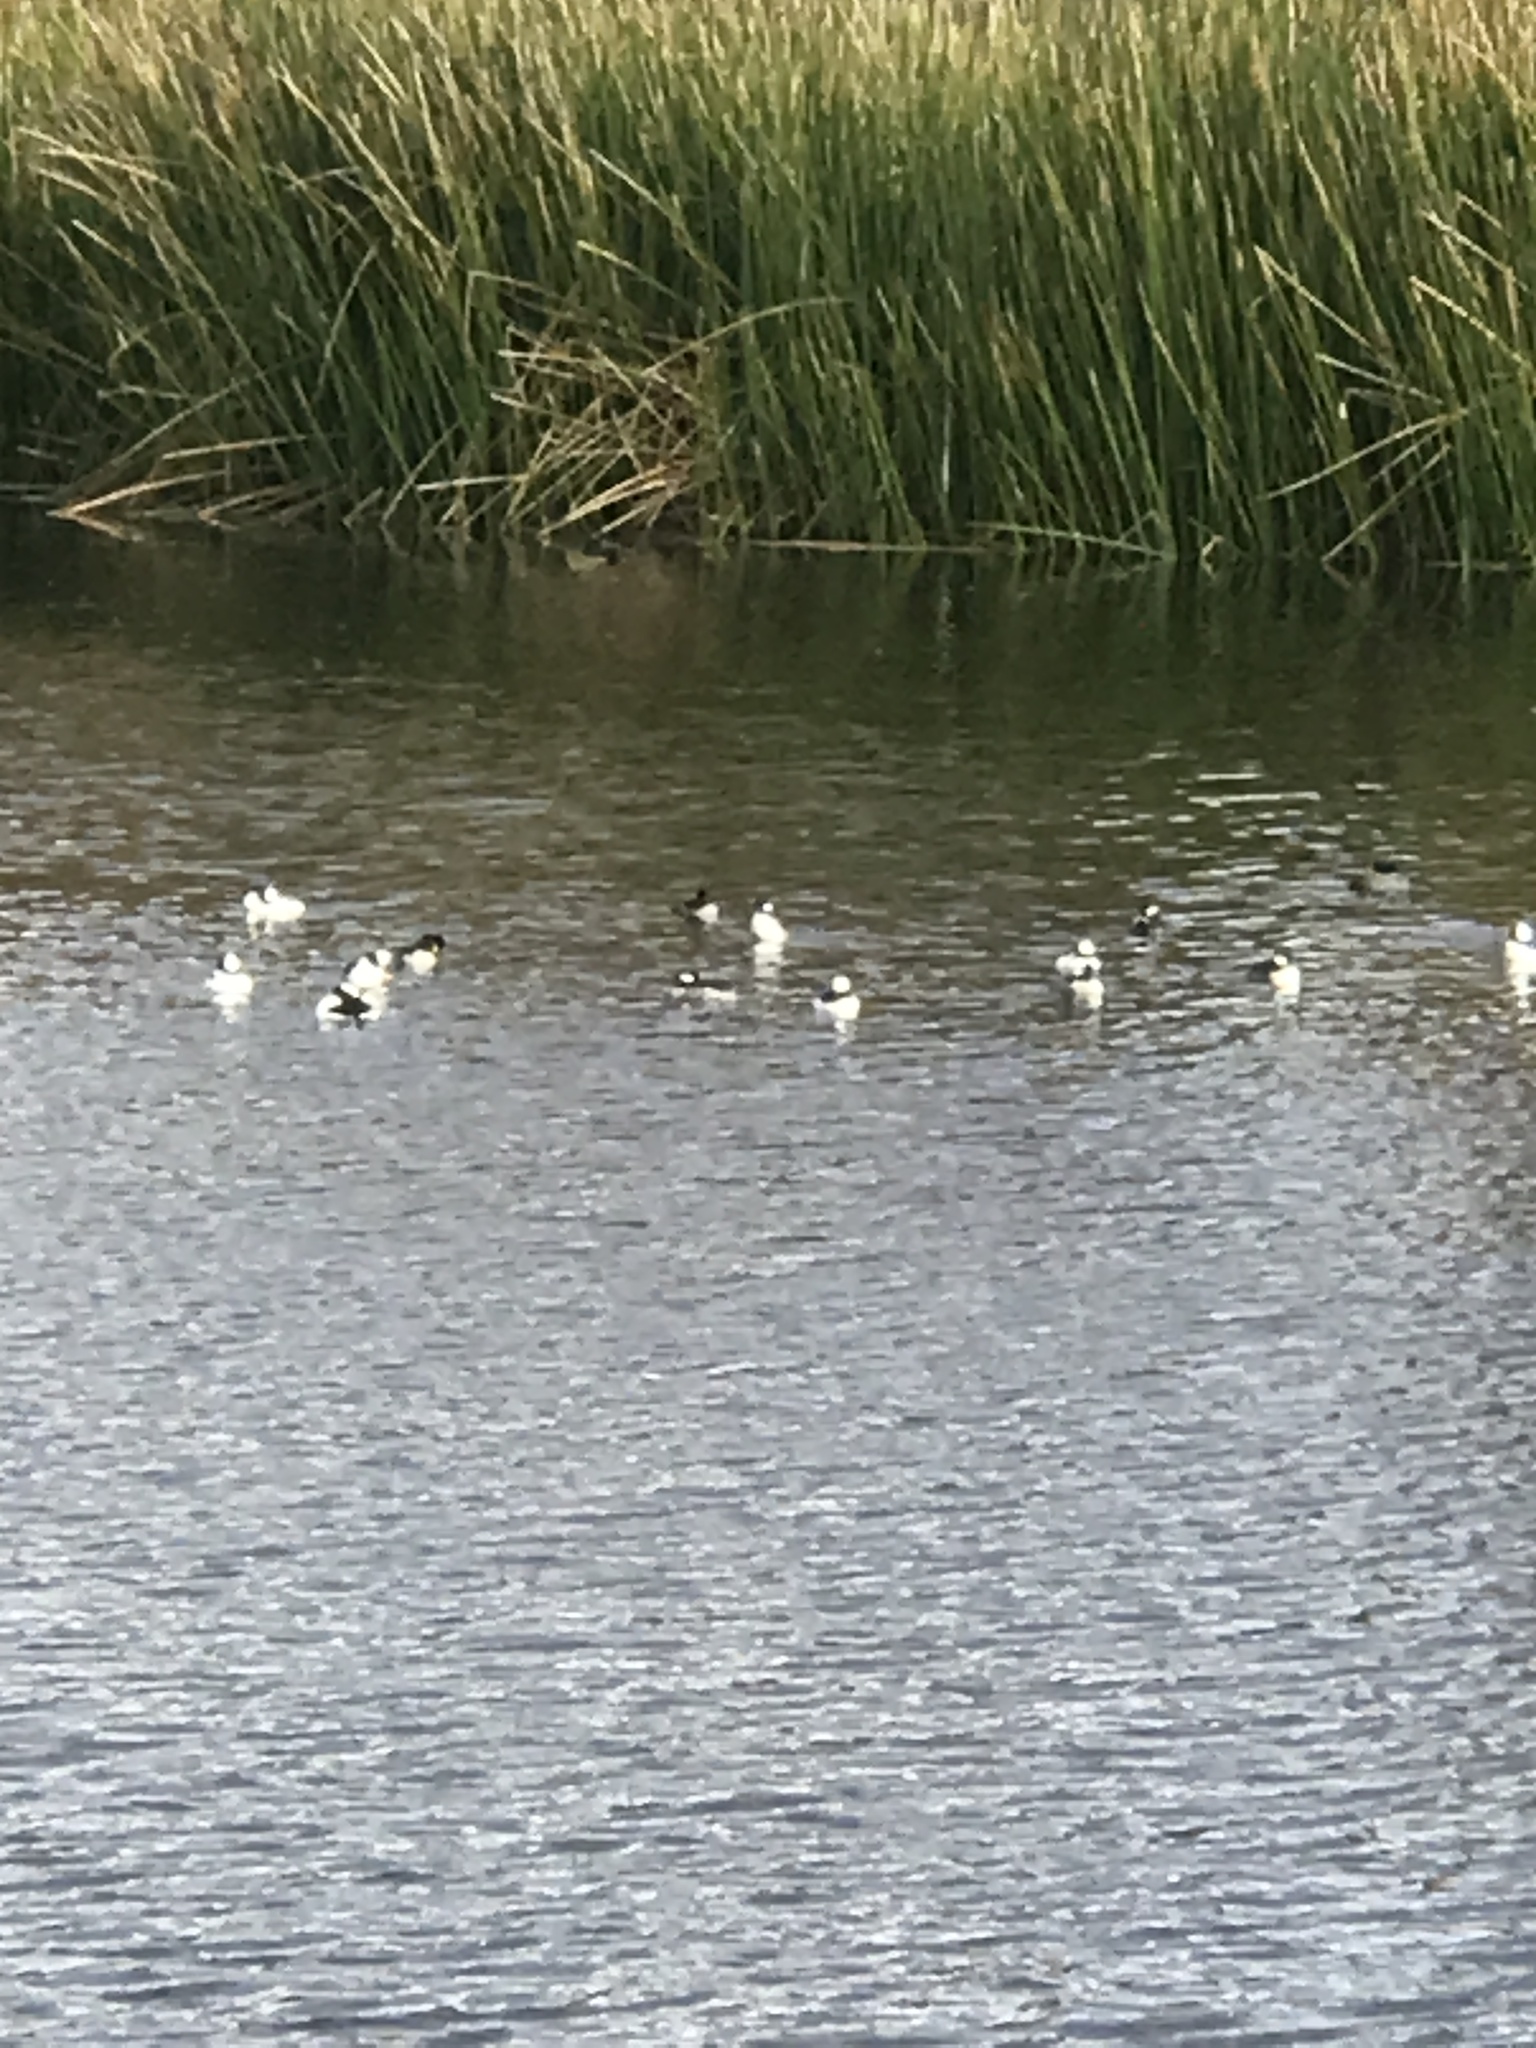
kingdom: Animalia
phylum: Chordata
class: Aves
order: Anseriformes
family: Anatidae
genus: Bucephala
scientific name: Bucephala albeola
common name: Bufflehead
